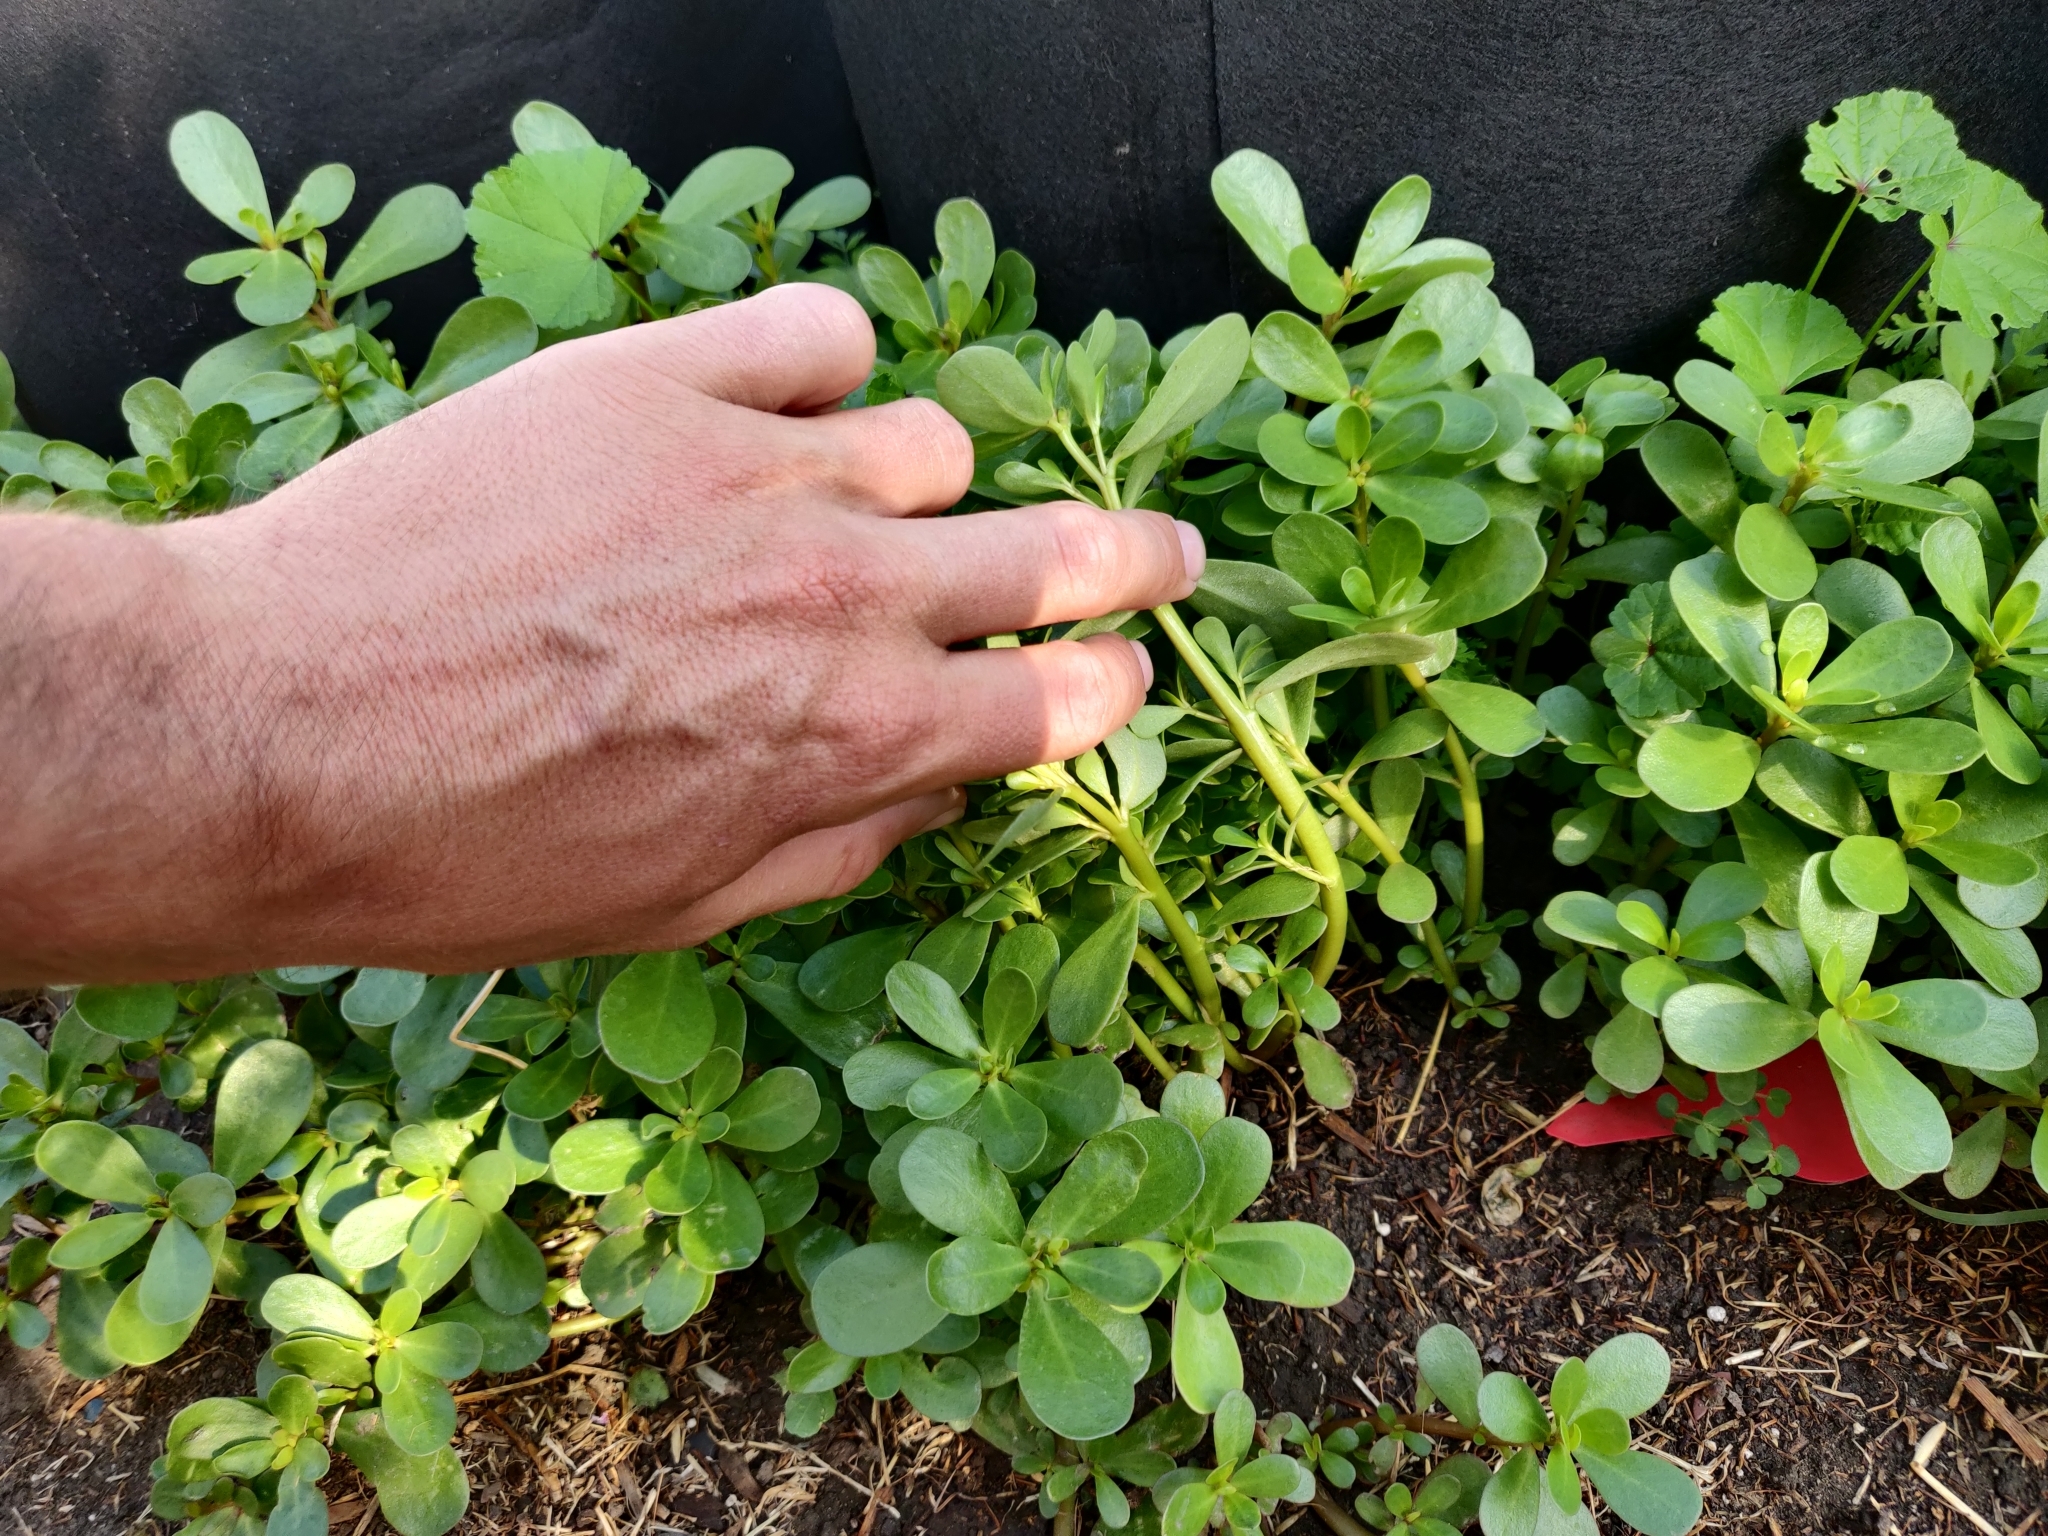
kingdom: Plantae
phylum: Tracheophyta
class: Magnoliopsida
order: Caryophyllales
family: Portulacaceae
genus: Portulaca
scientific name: Portulaca oleracea
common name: Common purslane
